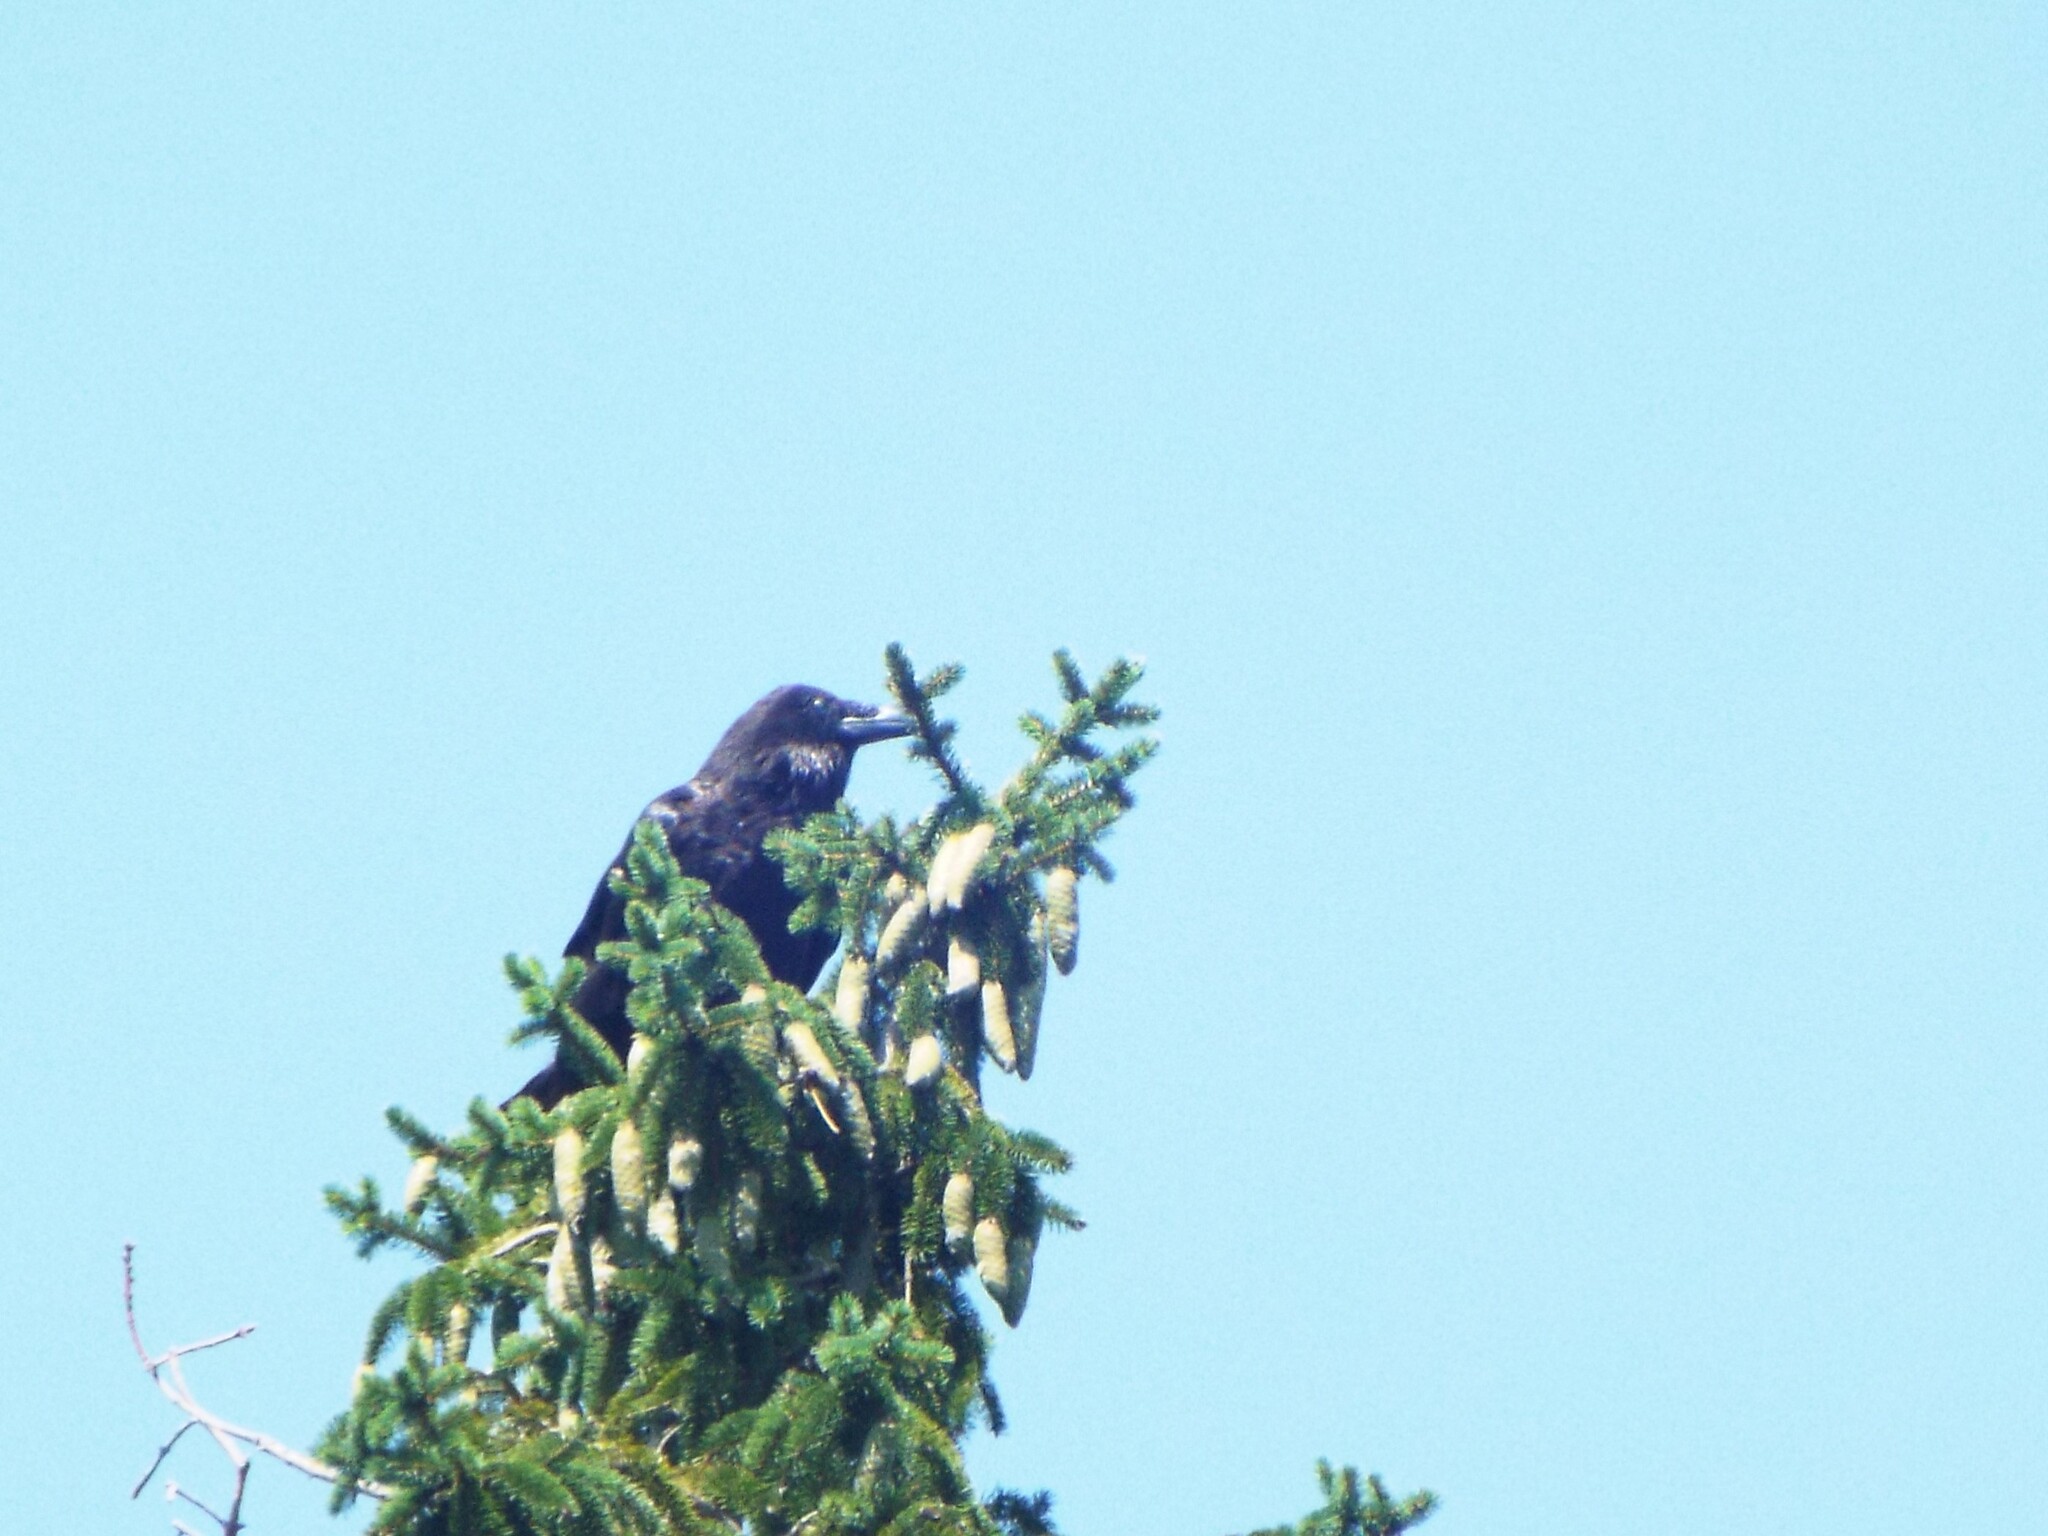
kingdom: Animalia
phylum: Chordata
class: Aves
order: Passeriformes
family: Corvidae
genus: Corvus
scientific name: Corvus corax
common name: Common raven
